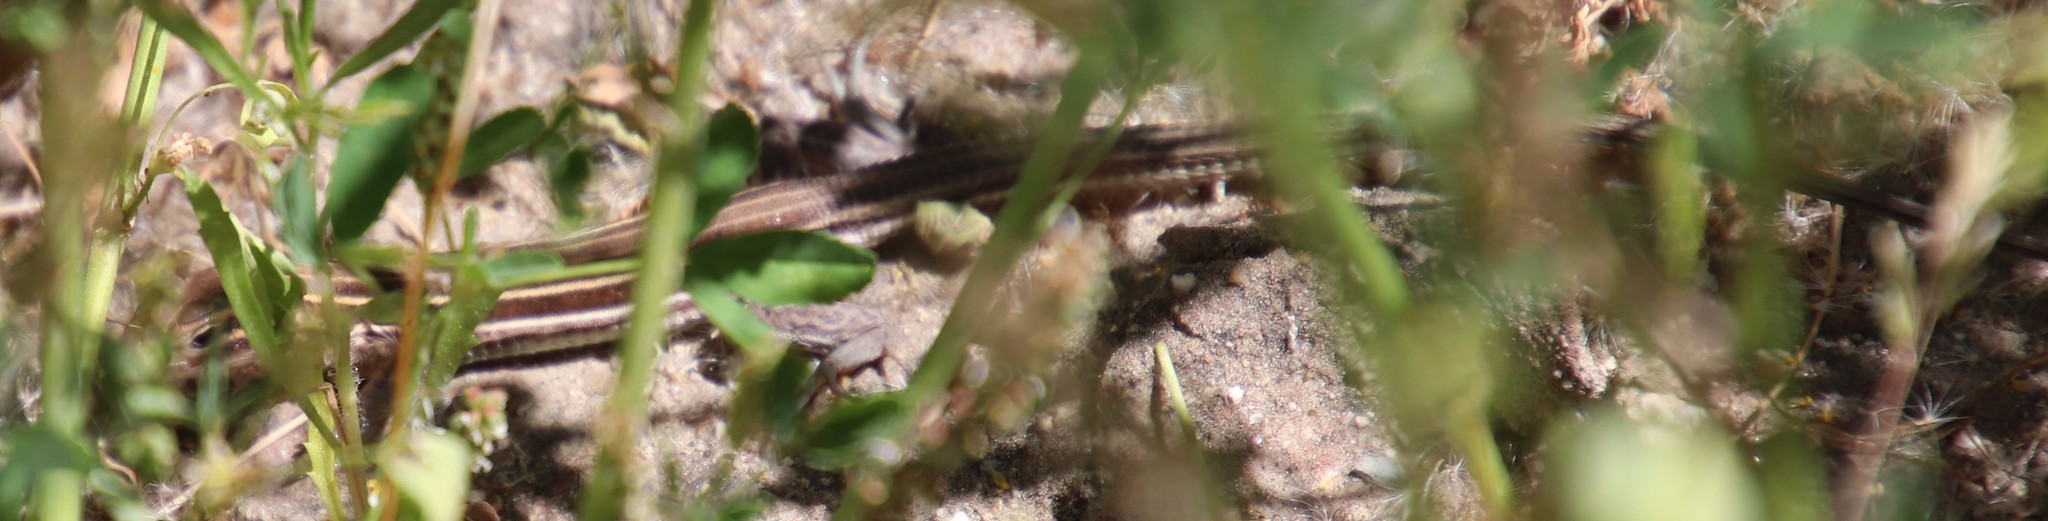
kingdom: Animalia
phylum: Chordata
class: Squamata
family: Teiidae
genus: Aspidoscelis
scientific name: Aspidoscelis hyperythrus
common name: Orange-throated race-runner
